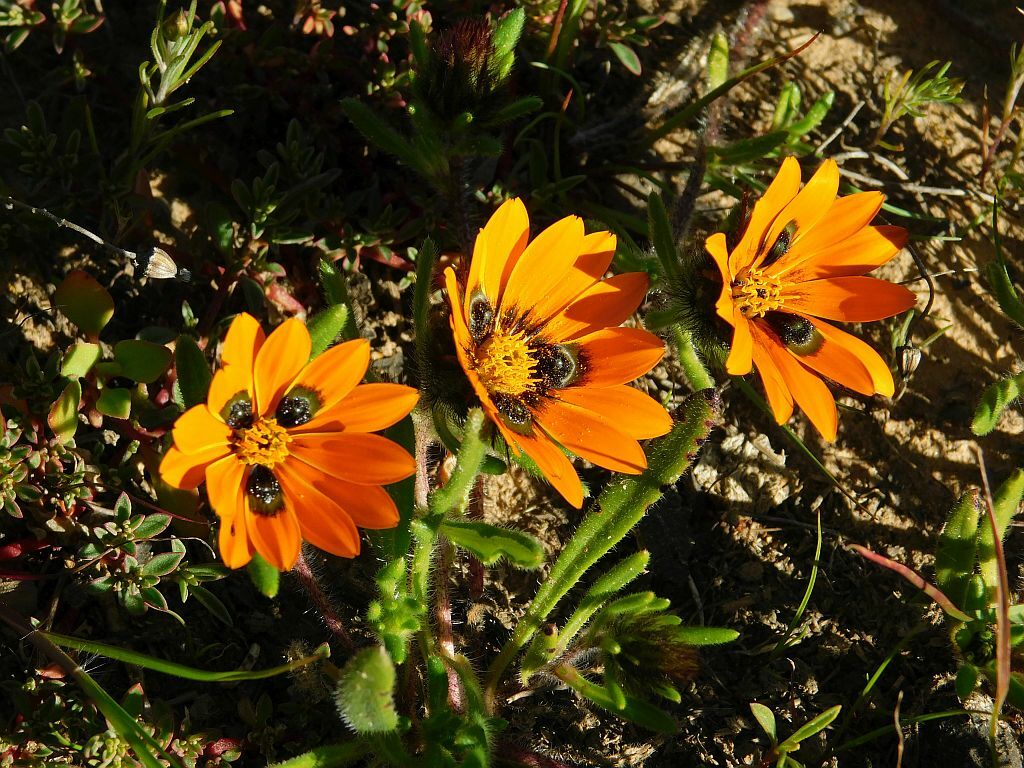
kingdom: Plantae
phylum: Tracheophyta
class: Magnoliopsida
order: Asterales
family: Asteraceae
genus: Gorteria
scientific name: Gorteria diffusa
